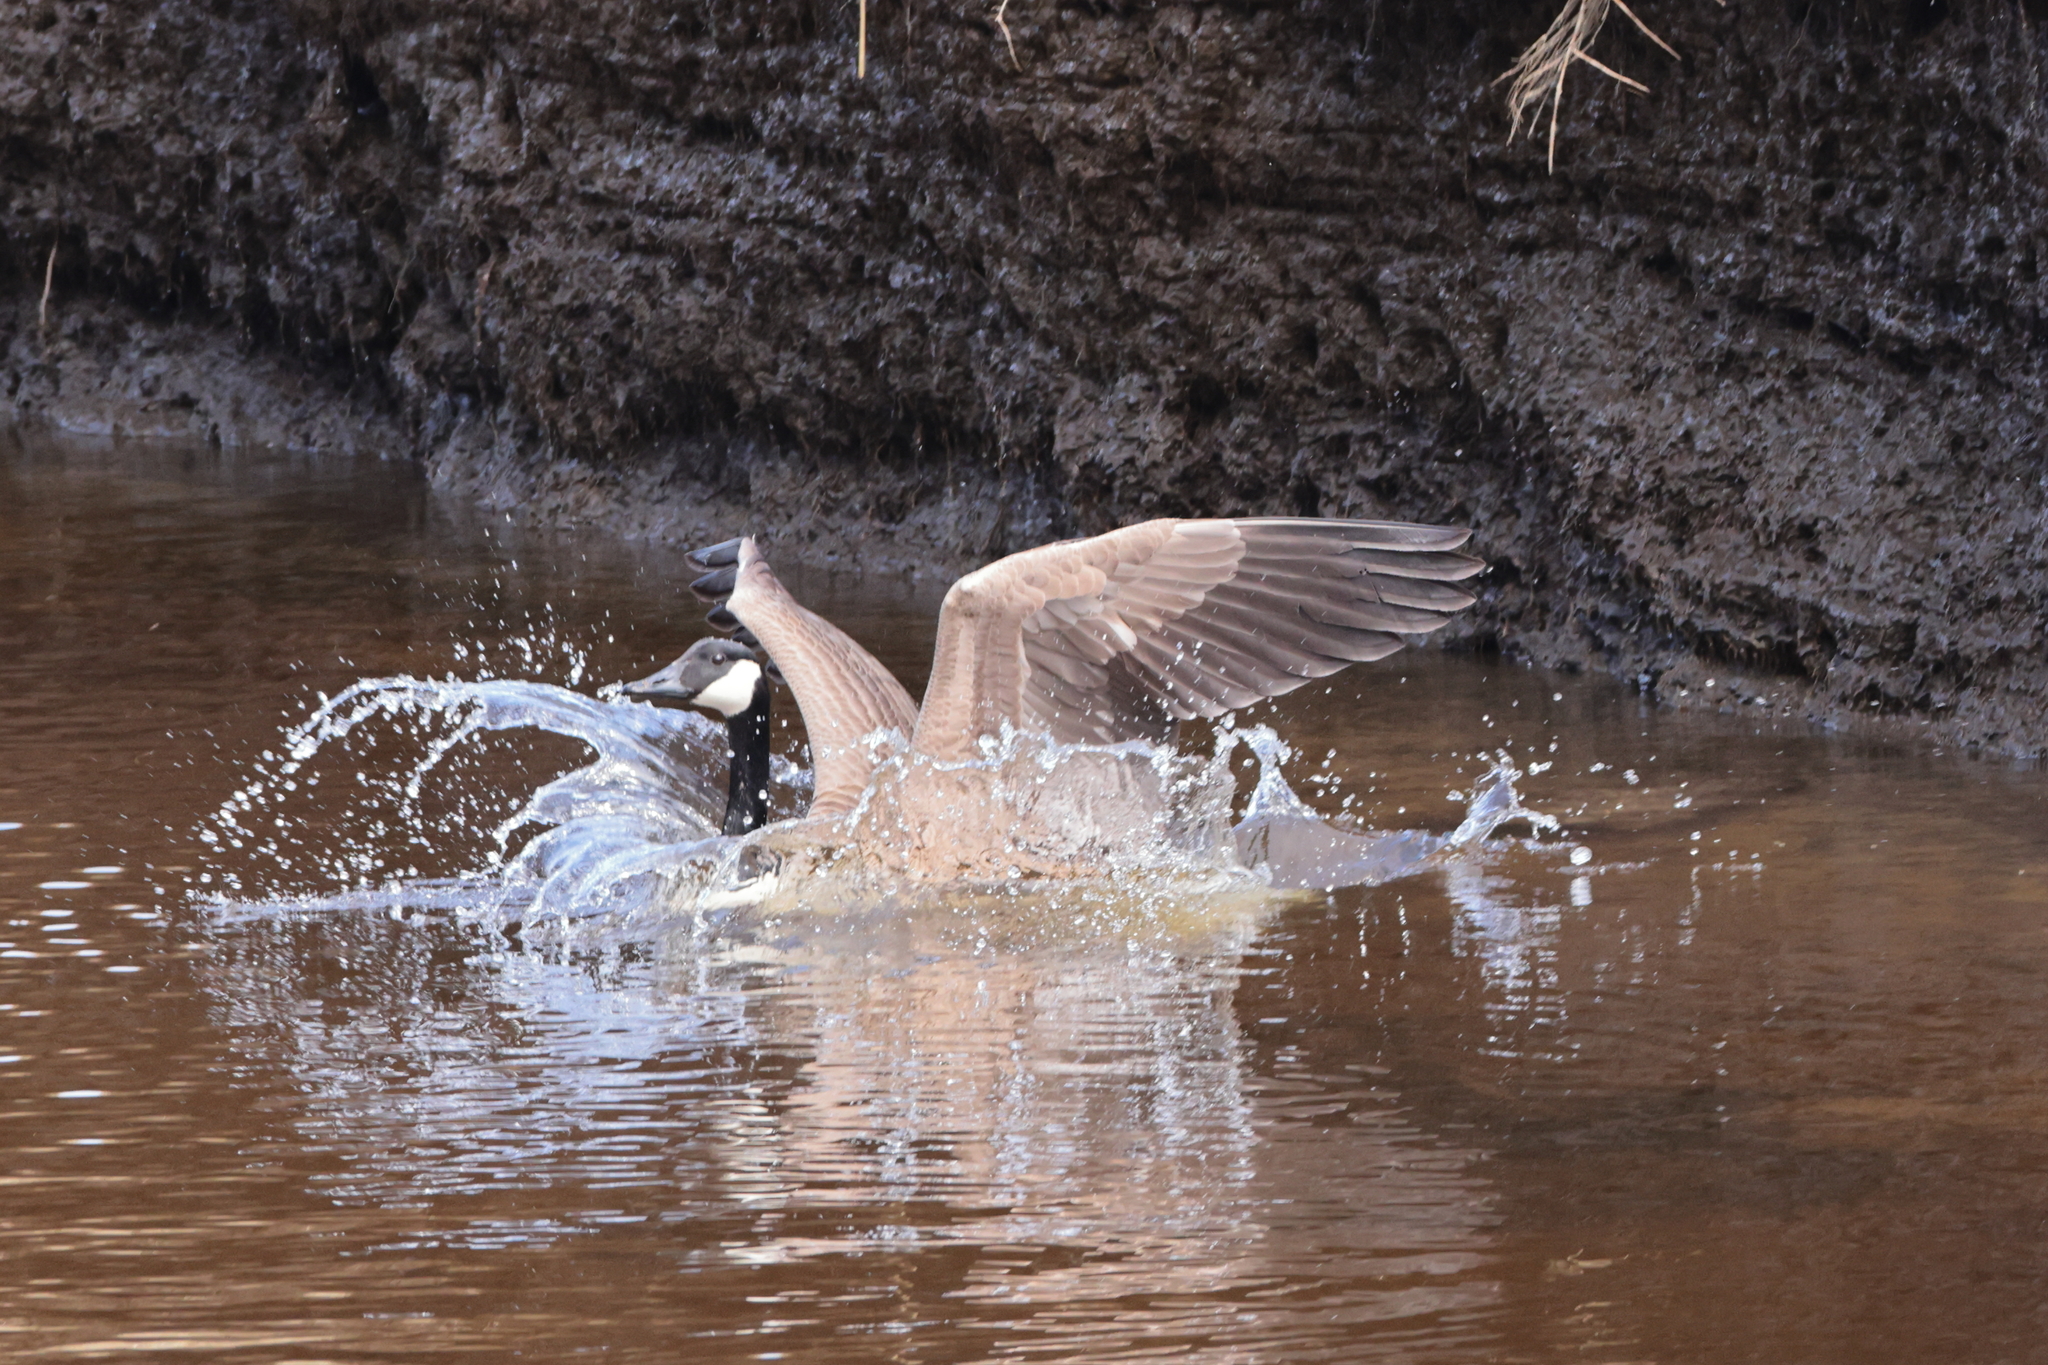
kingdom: Animalia
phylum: Chordata
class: Aves
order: Anseriformes
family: Anatidae
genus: Branta
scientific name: Branta canadensis
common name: Canada goose
